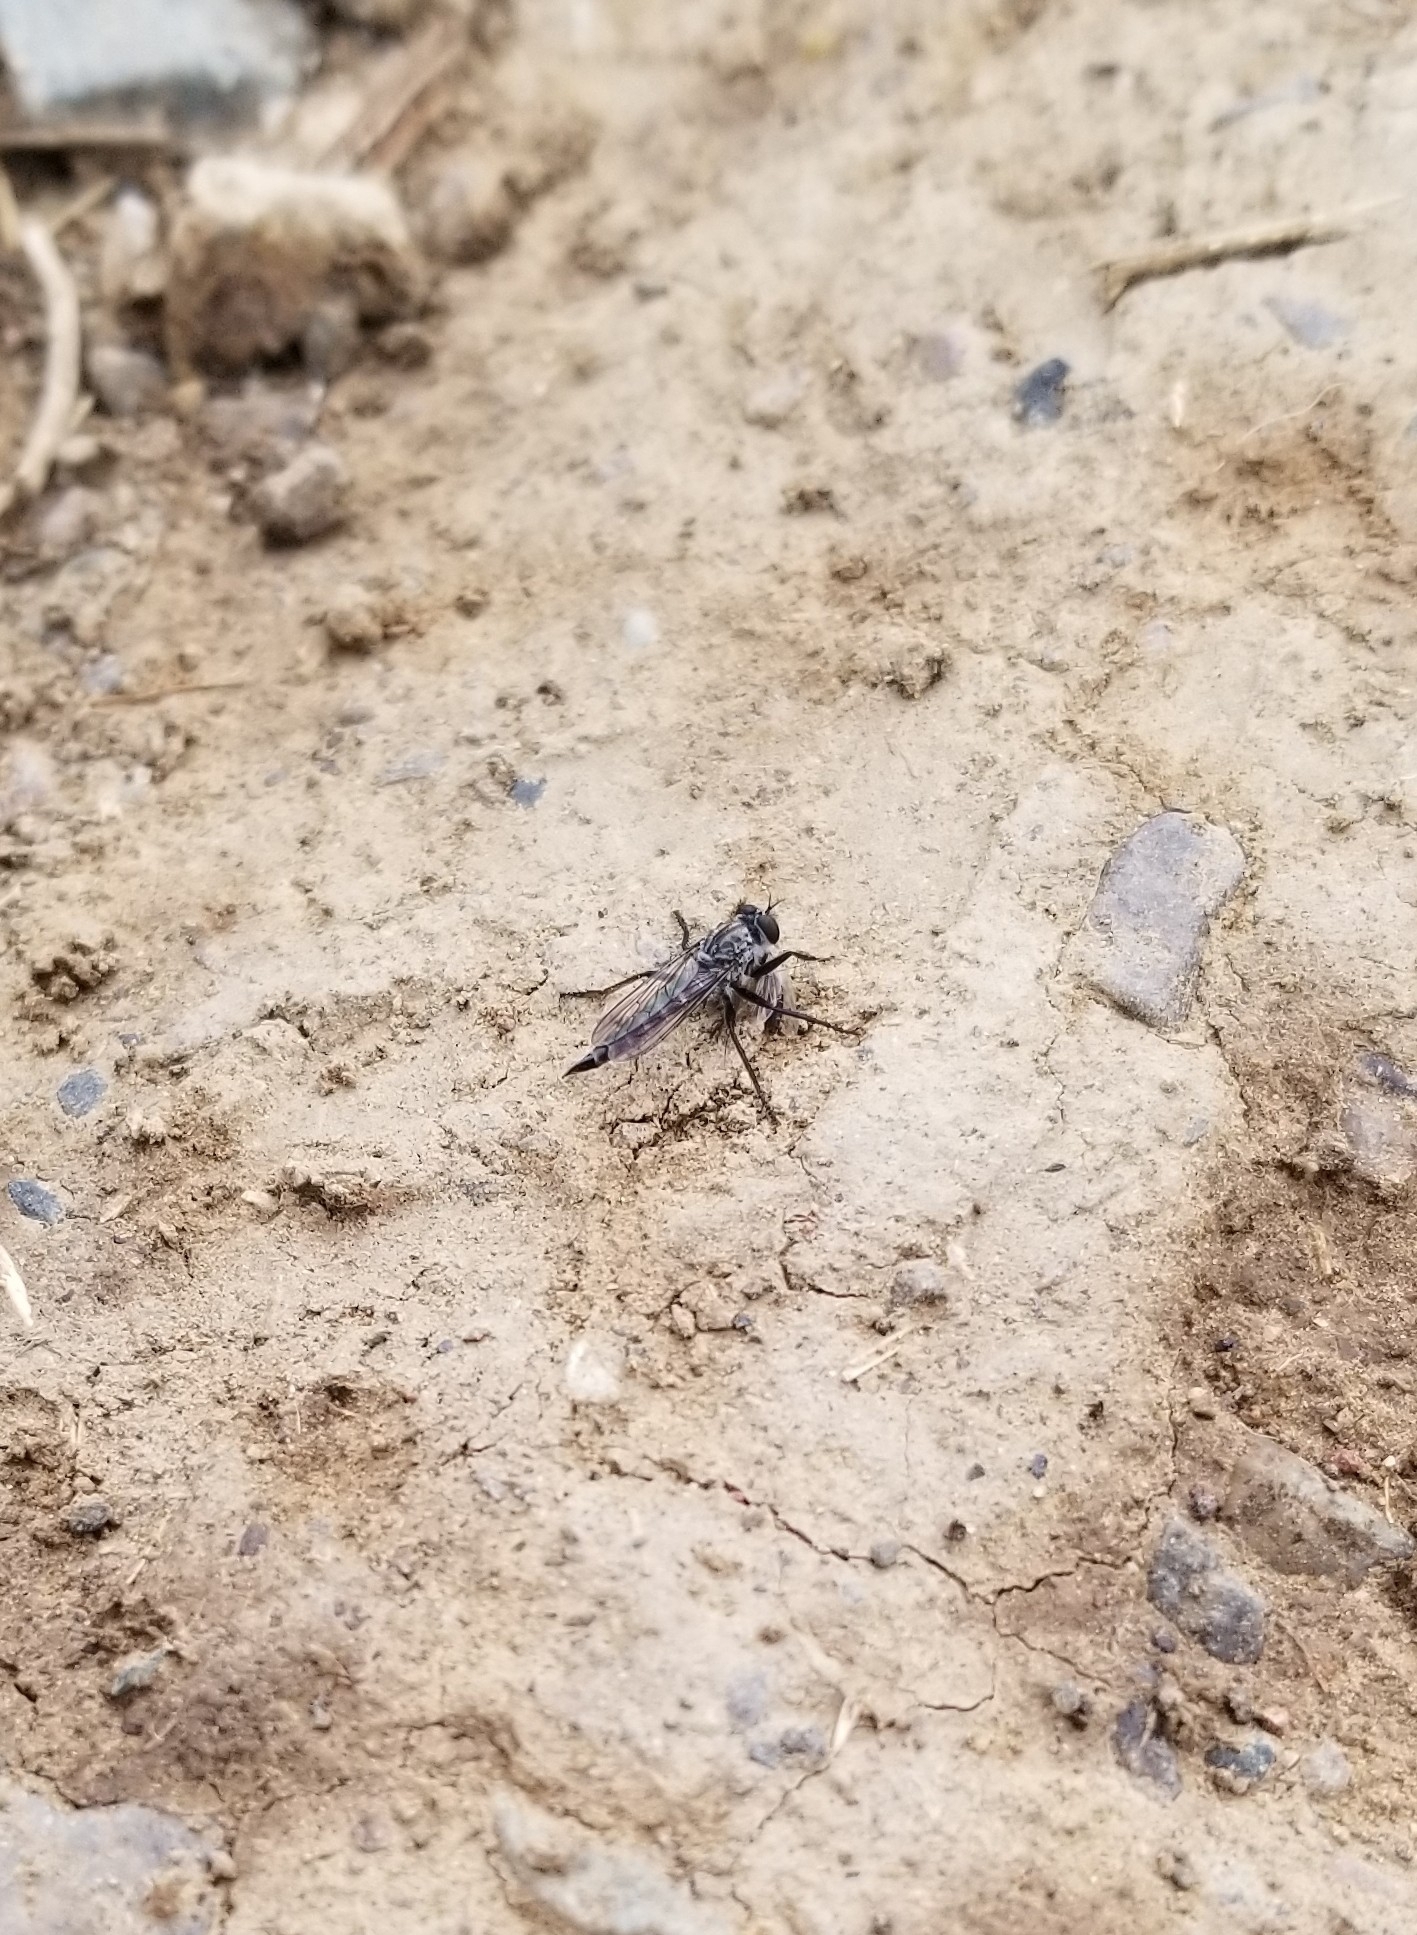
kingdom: Animalia
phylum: Arthropoda
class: Insecta
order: Diptera
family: Asilidae
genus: Machimus
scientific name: Machimus vescus
